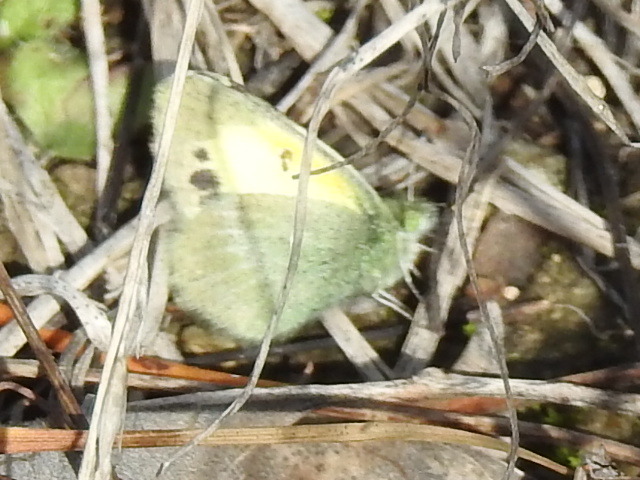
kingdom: Animalia
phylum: Arthropoda
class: Insecta
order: Lepidoptera
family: Pieridae
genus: Nathalis
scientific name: Nathalis iole
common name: Dainty sulphur
